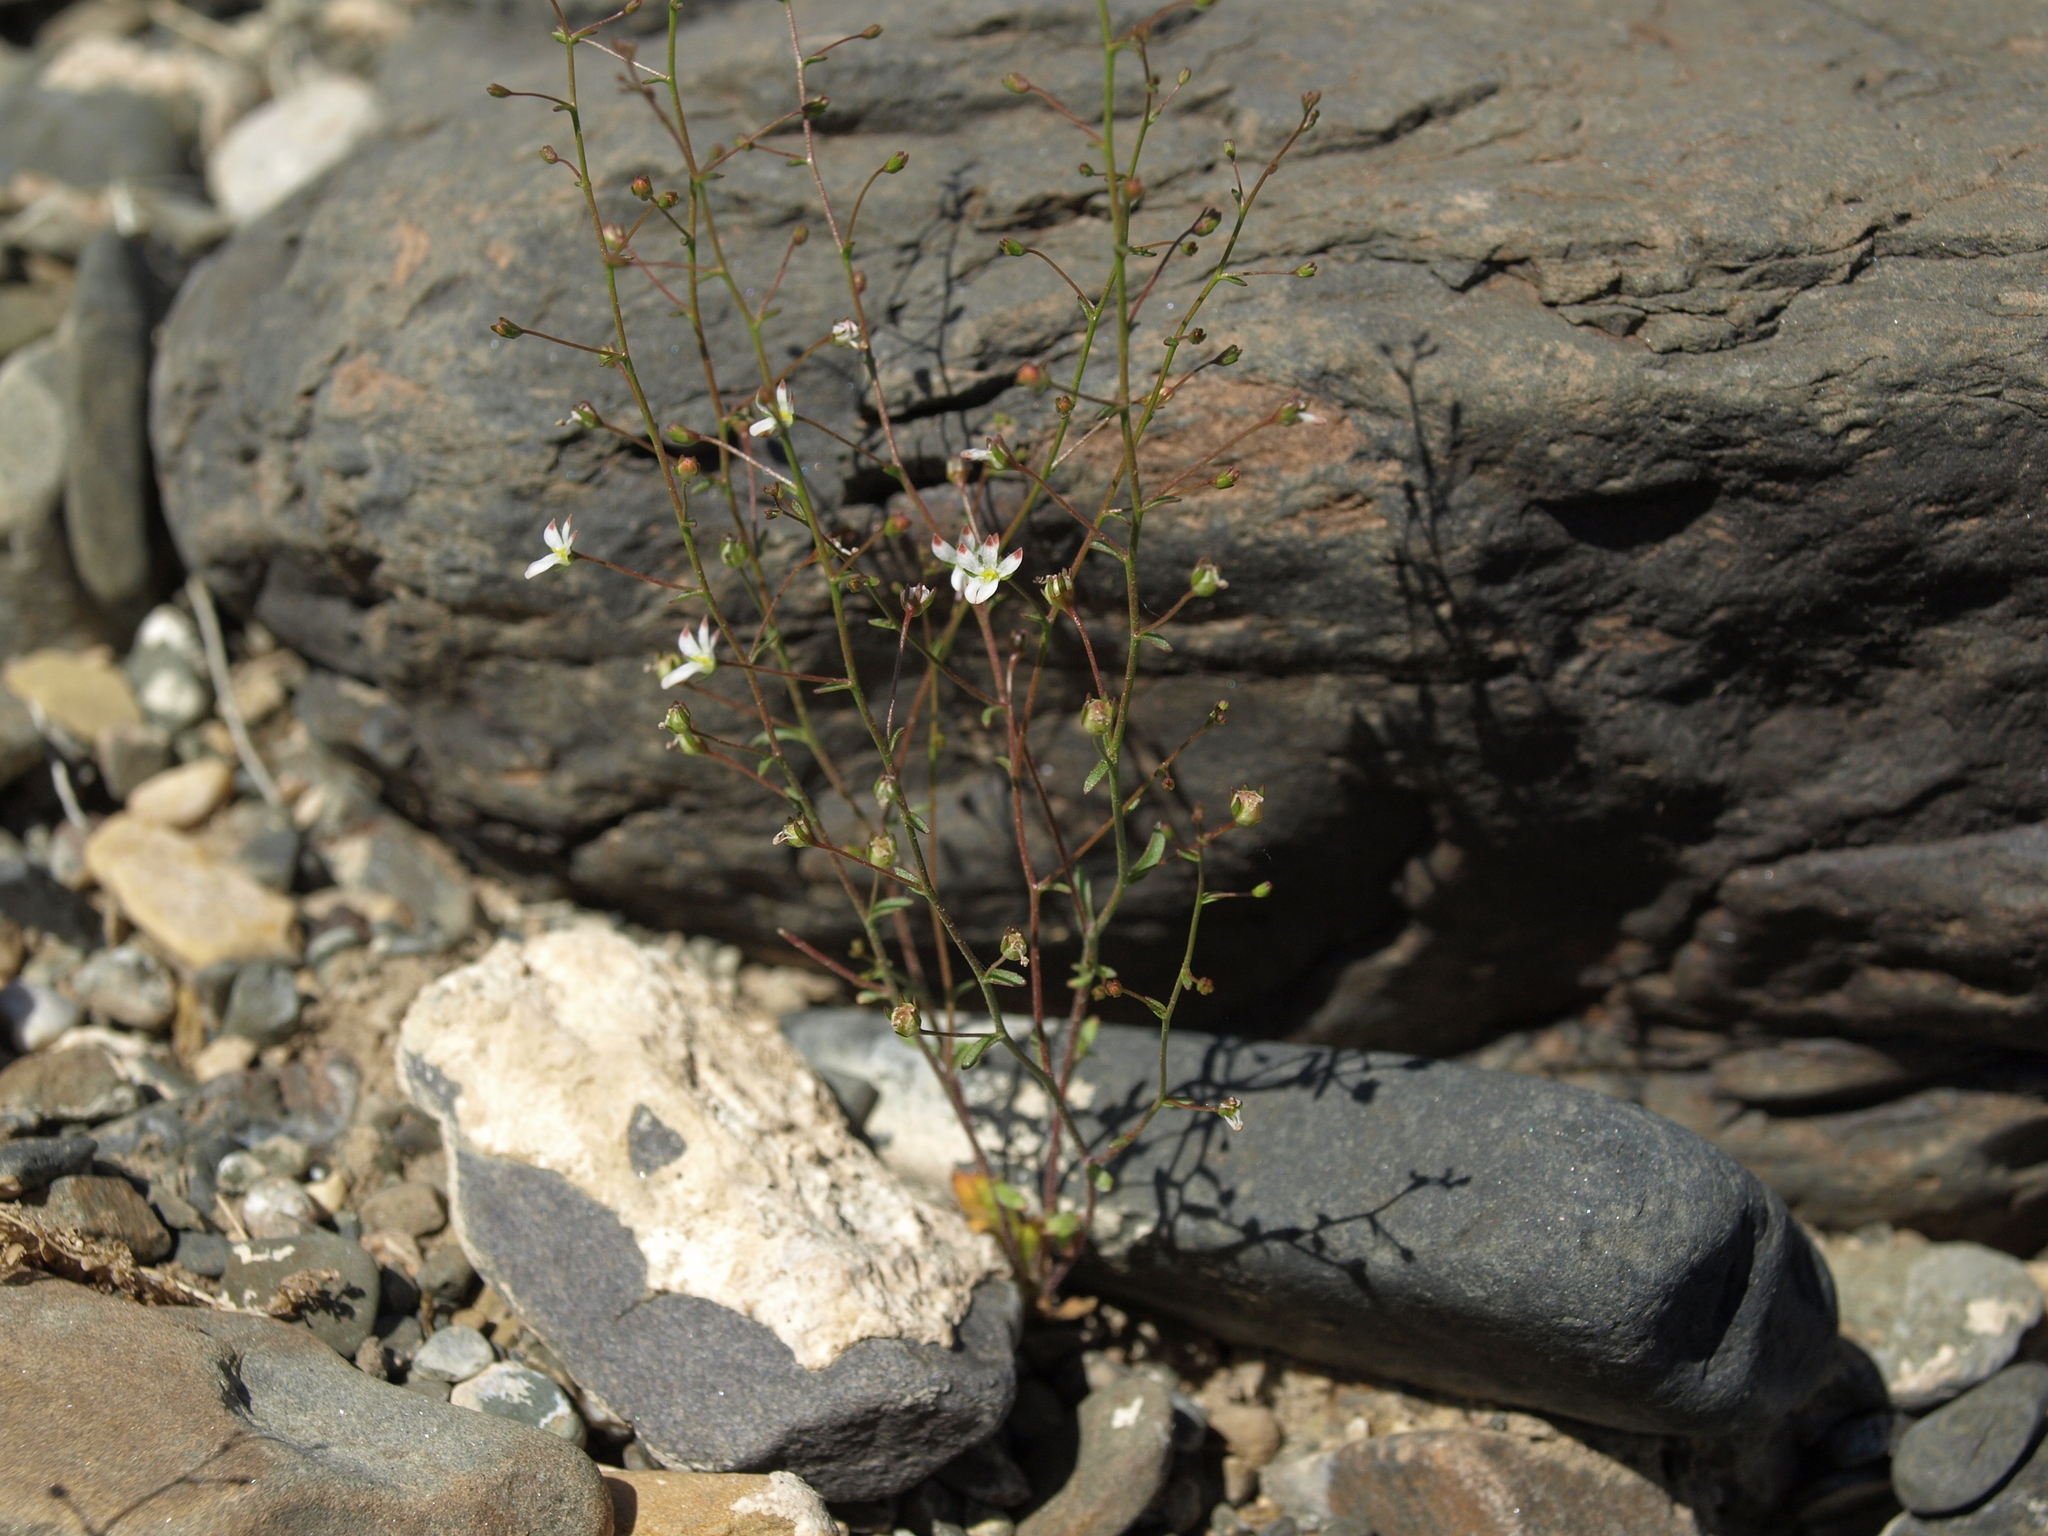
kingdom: Plantae
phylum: Tracheophyta
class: Magnoliopsida
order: Asterales
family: Campanulaceae
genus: Nemacladus
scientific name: Nemacladus orientalis
